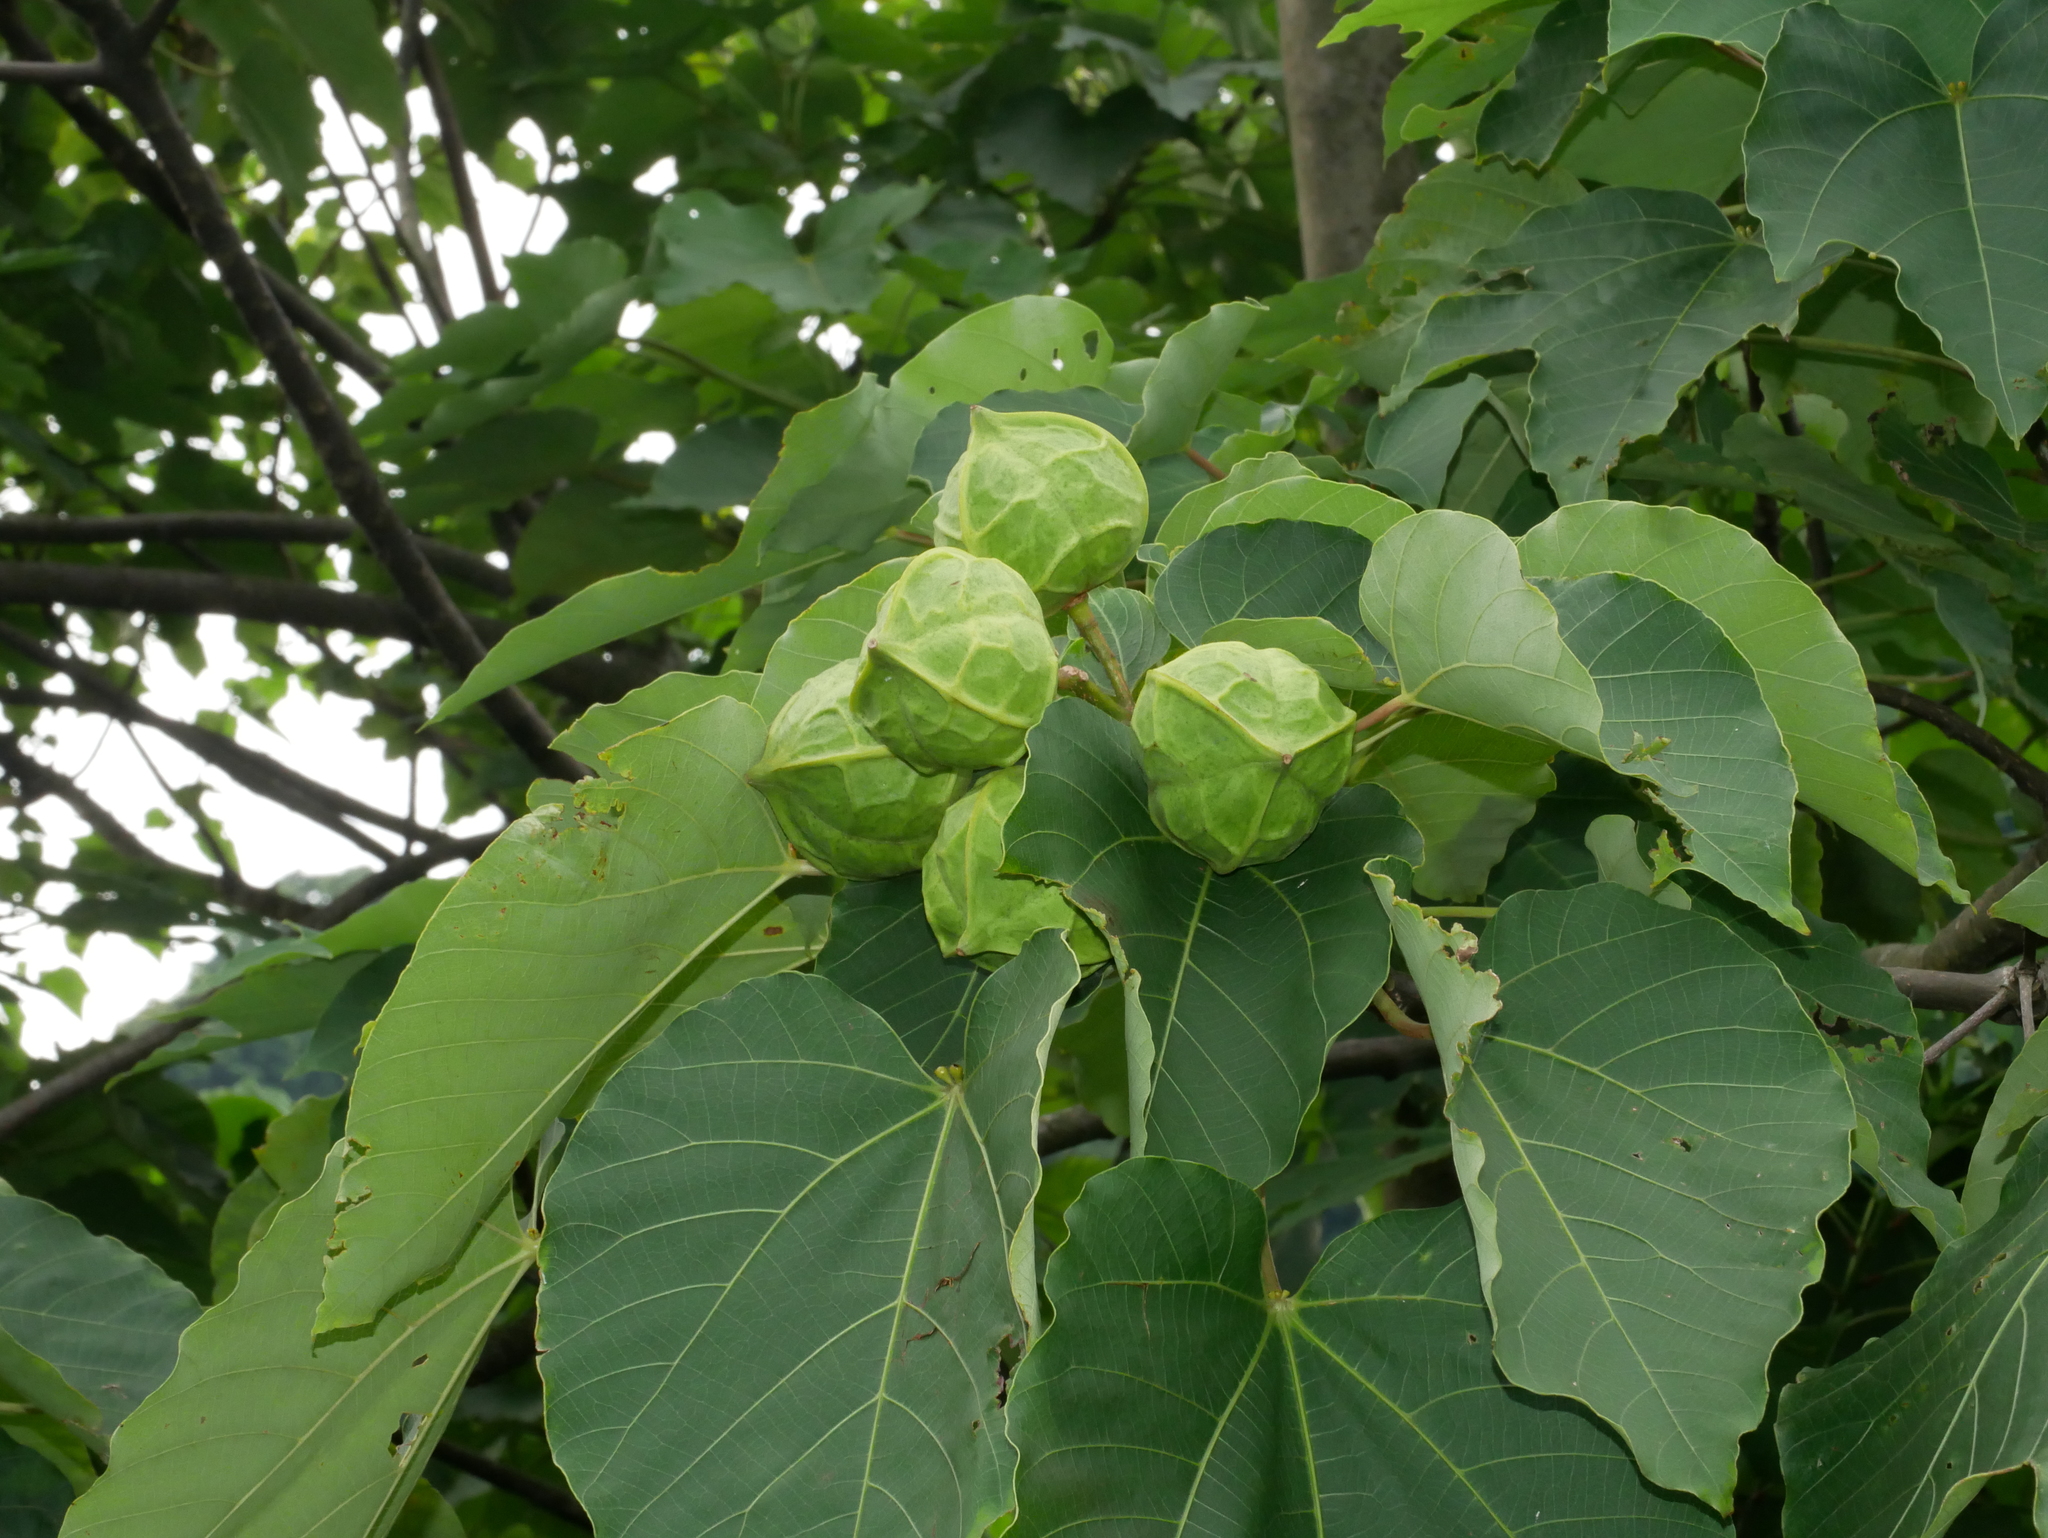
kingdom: Plantae
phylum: Tracheophyta
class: Magnoliopsida
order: Malpighiales
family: Euphorbiaceae
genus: Vernicia
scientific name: Vernicia montana
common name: Mu oil tree
